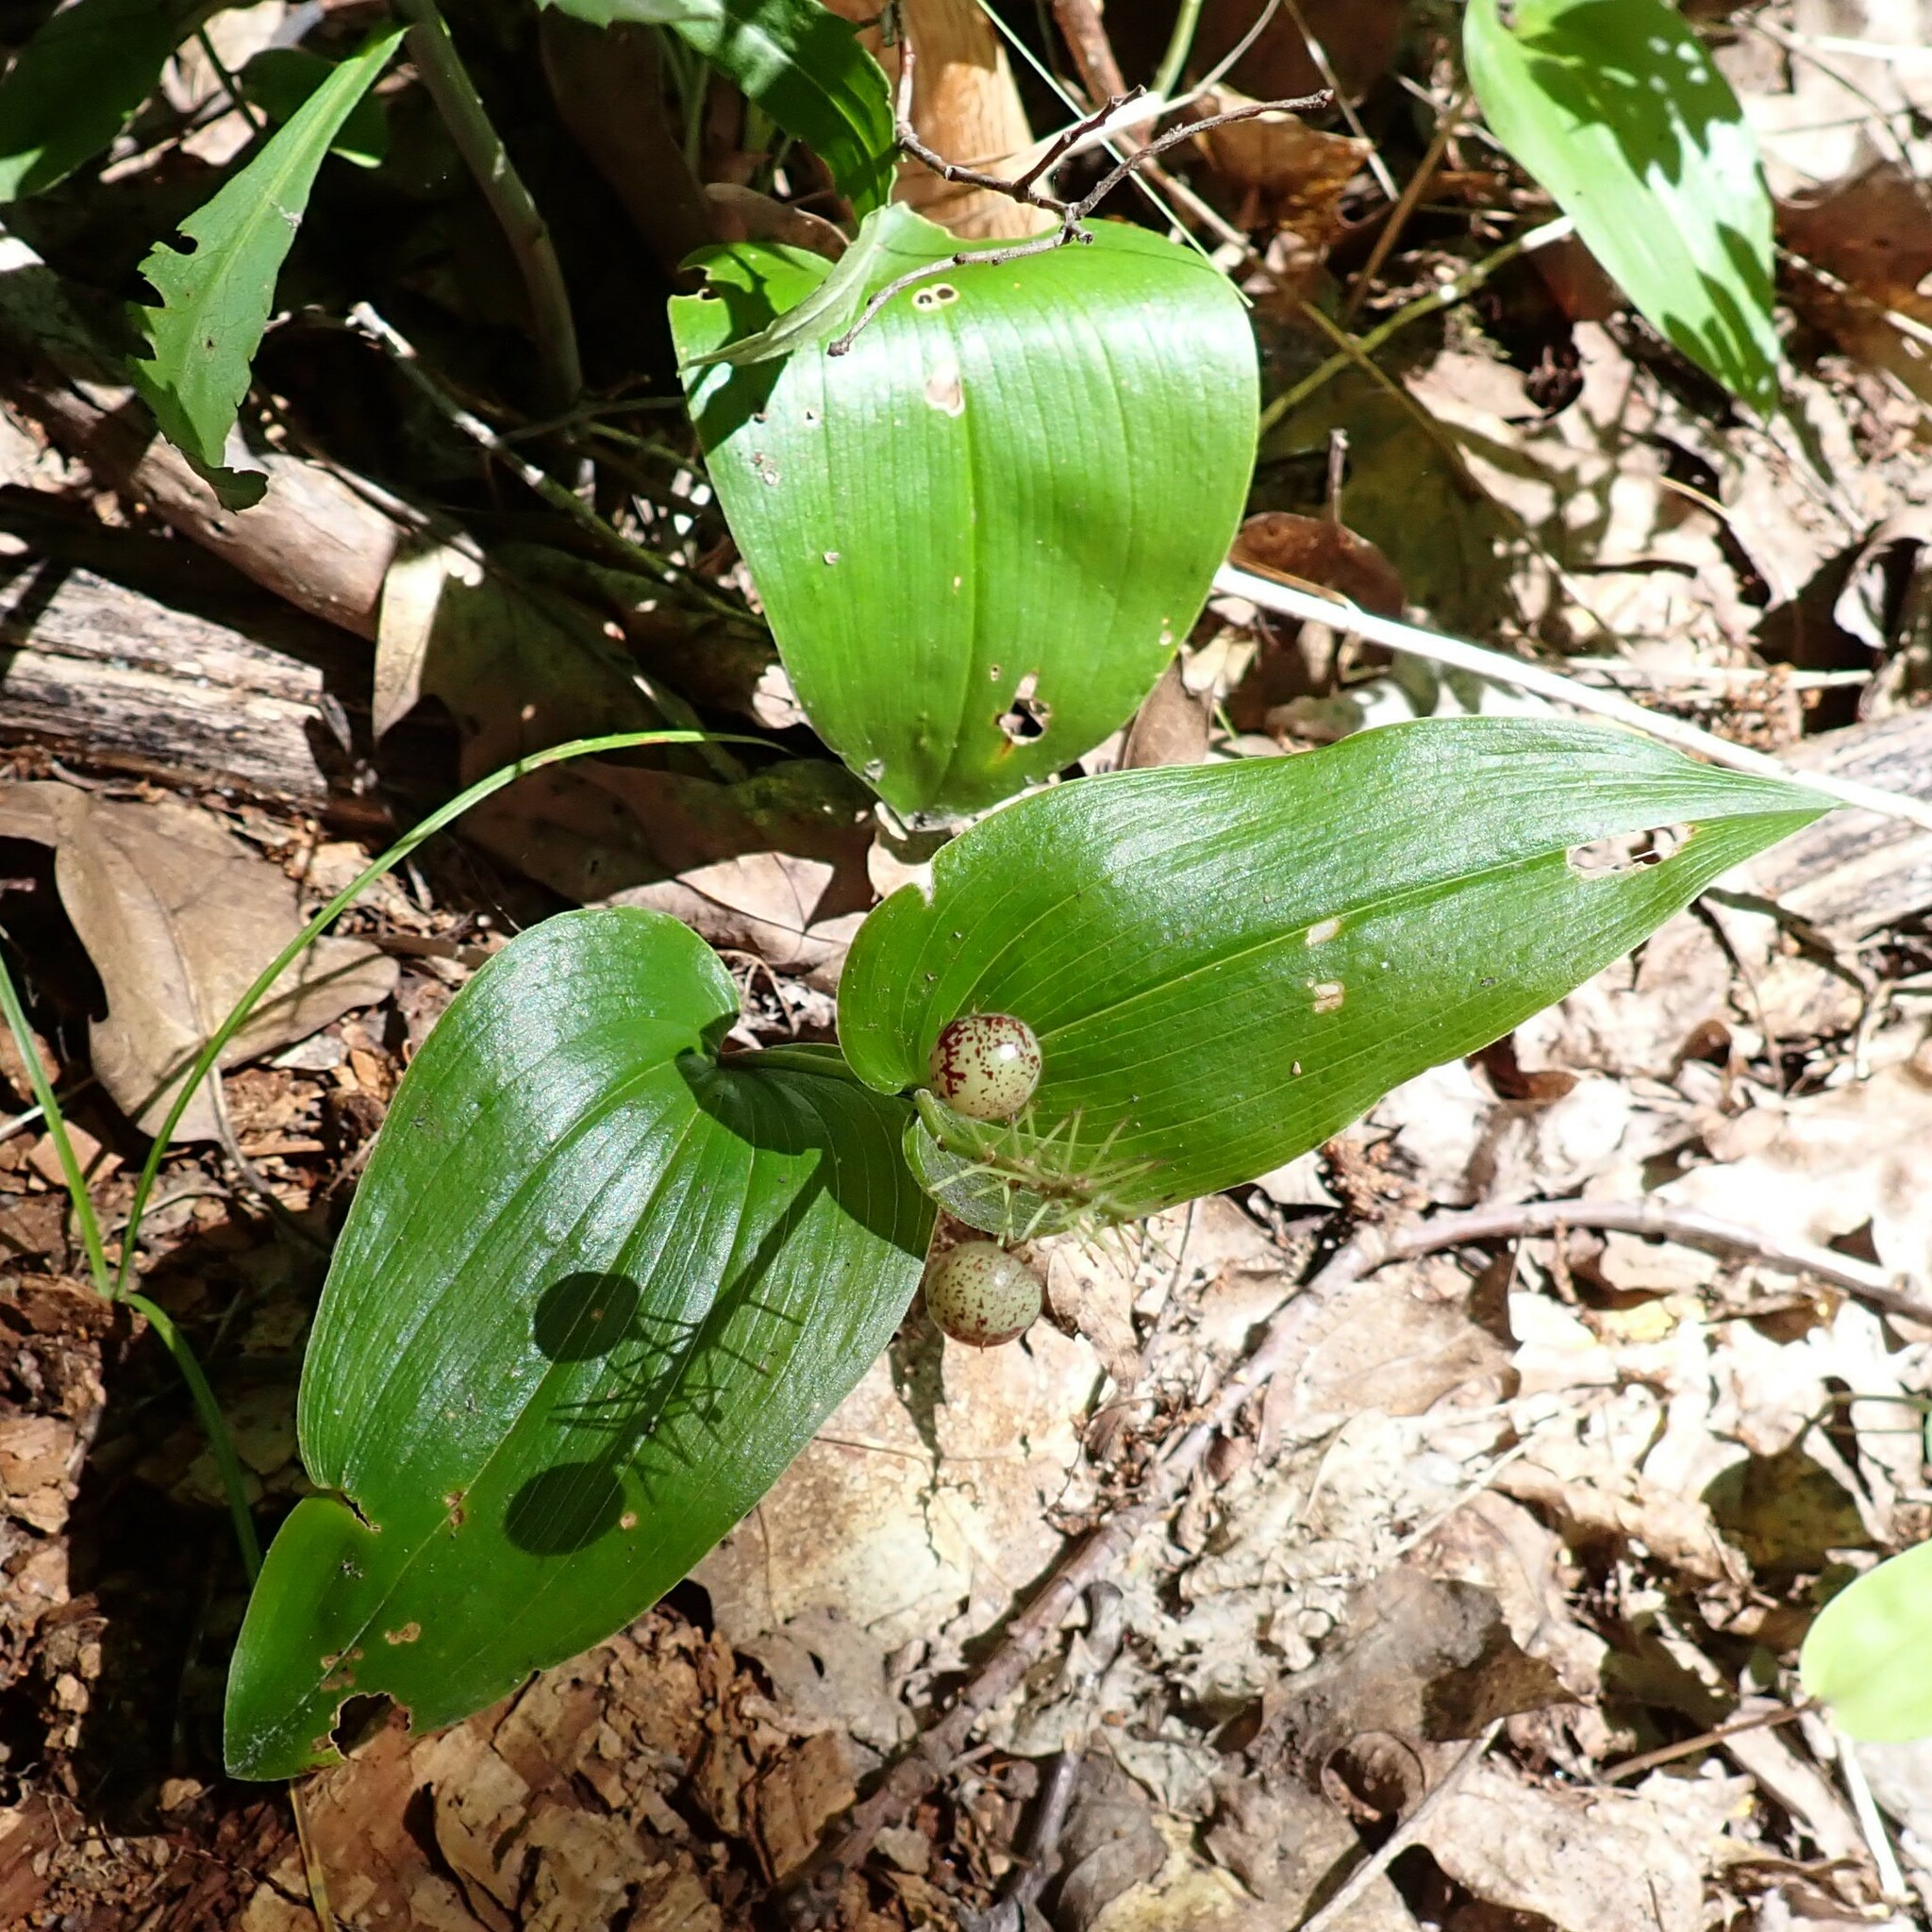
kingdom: Plantae
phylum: Tracheophyta
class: Liliopsida
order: Asparagales
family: Asparagaceae
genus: Maianthemum
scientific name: Maianthemum canadense
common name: False lily-of-the-valley
